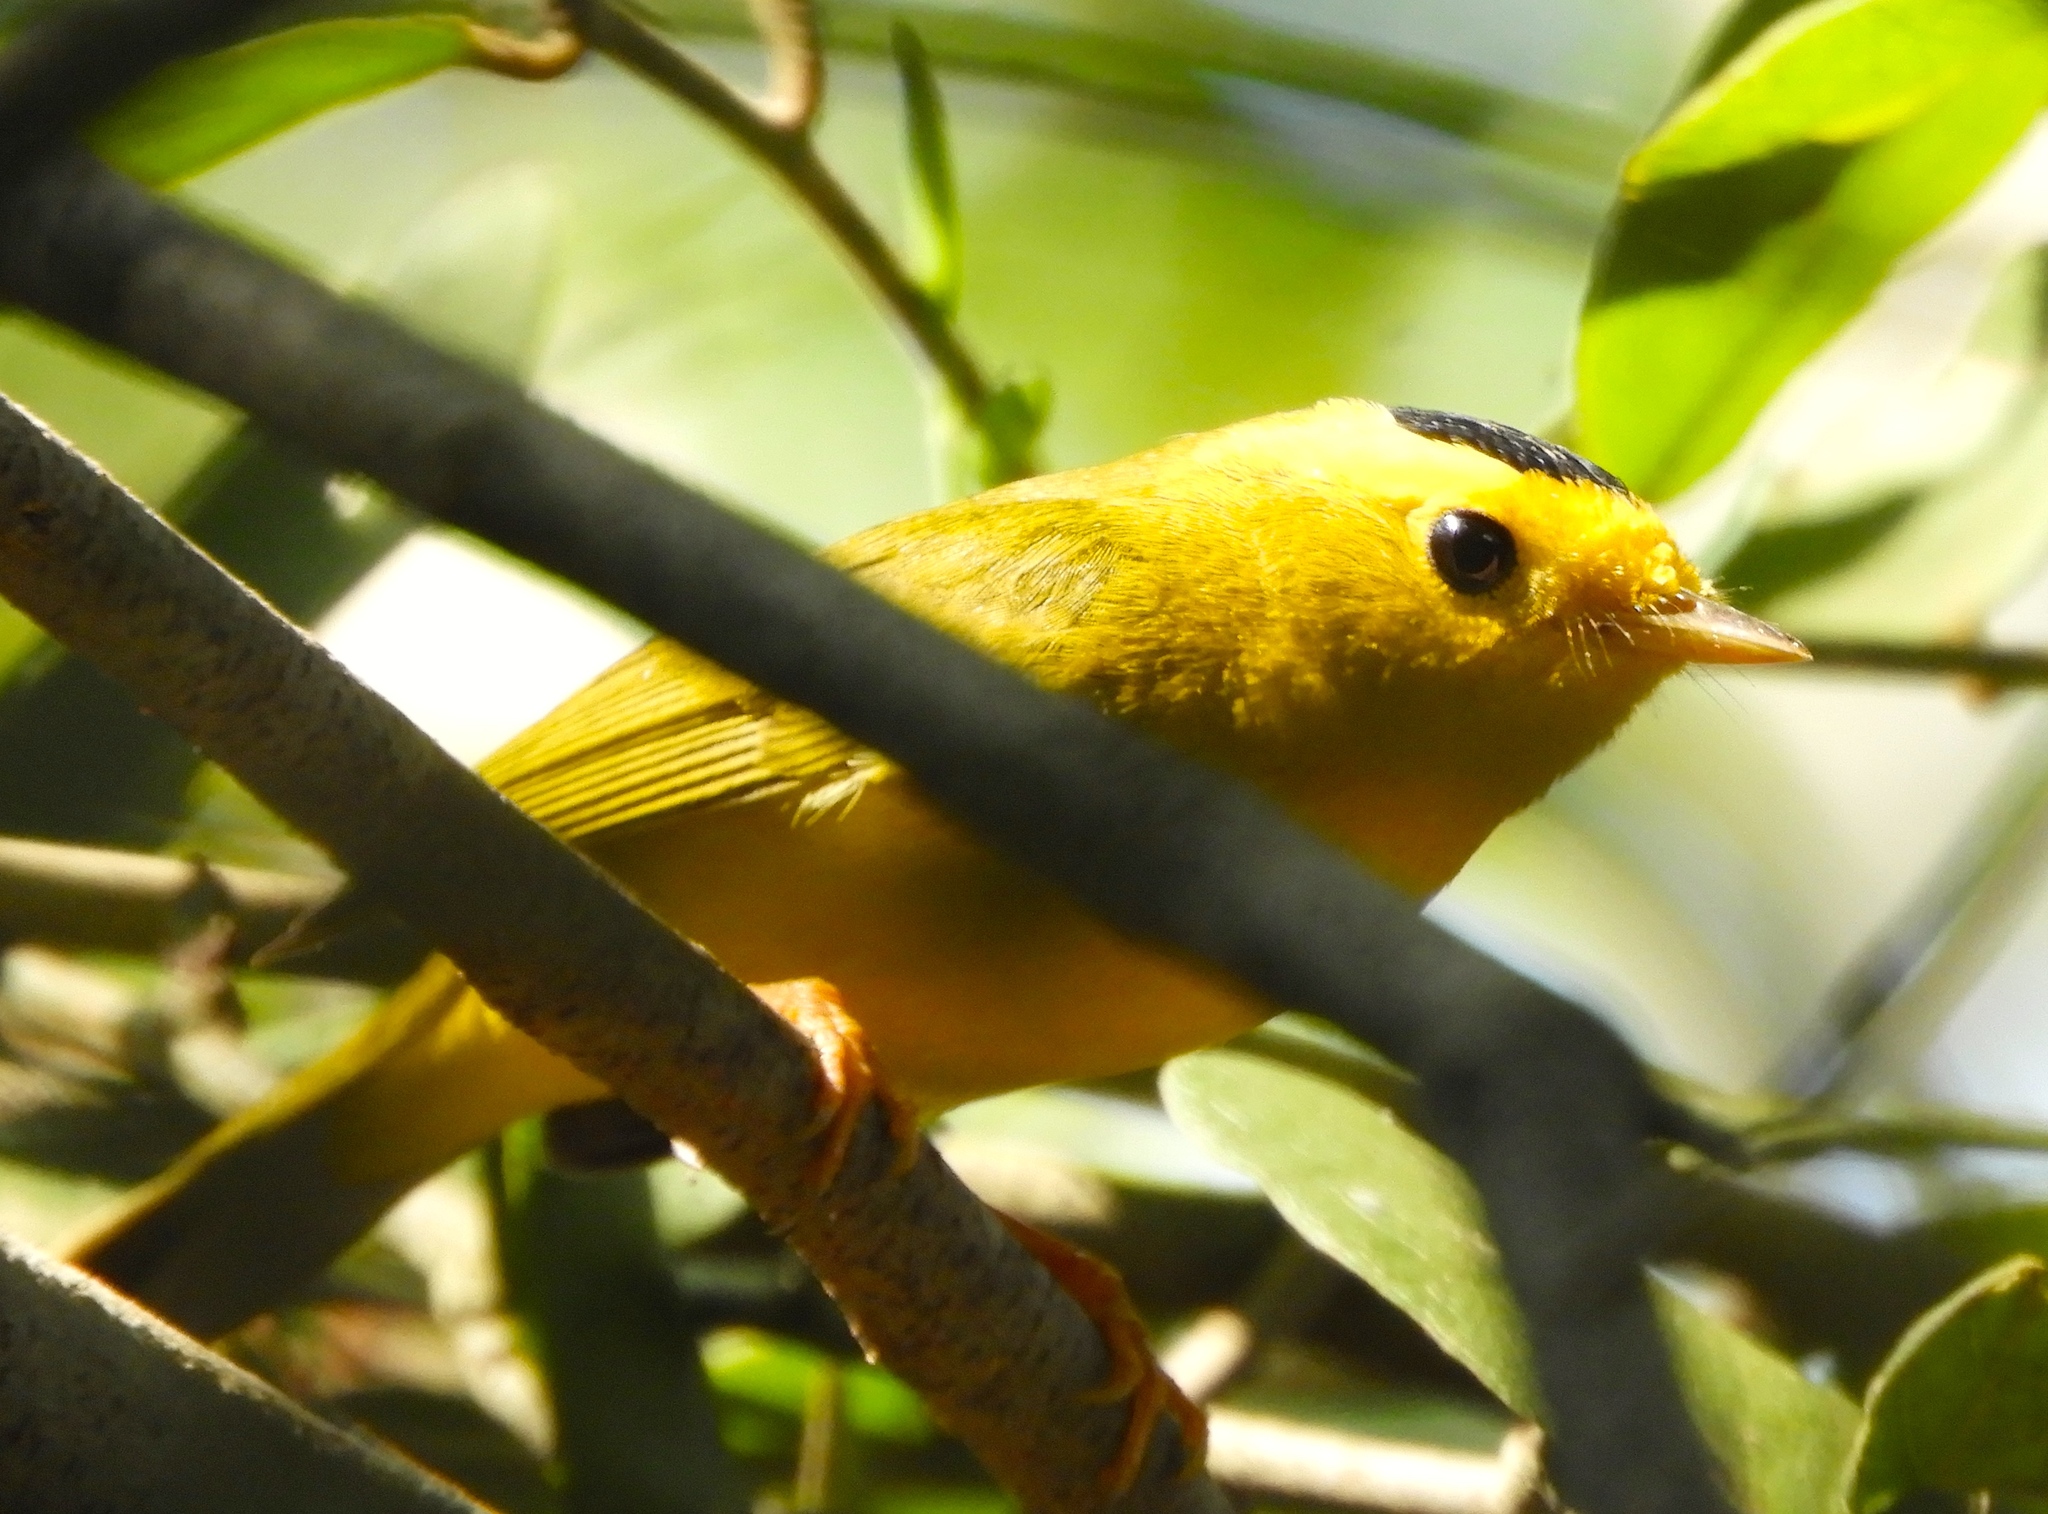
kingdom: Animalia
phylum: Chordata
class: Aves
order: Passeriformes
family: Parulidae
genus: Cardellina
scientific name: Cardellina pusilla
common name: Wilson's warbler
